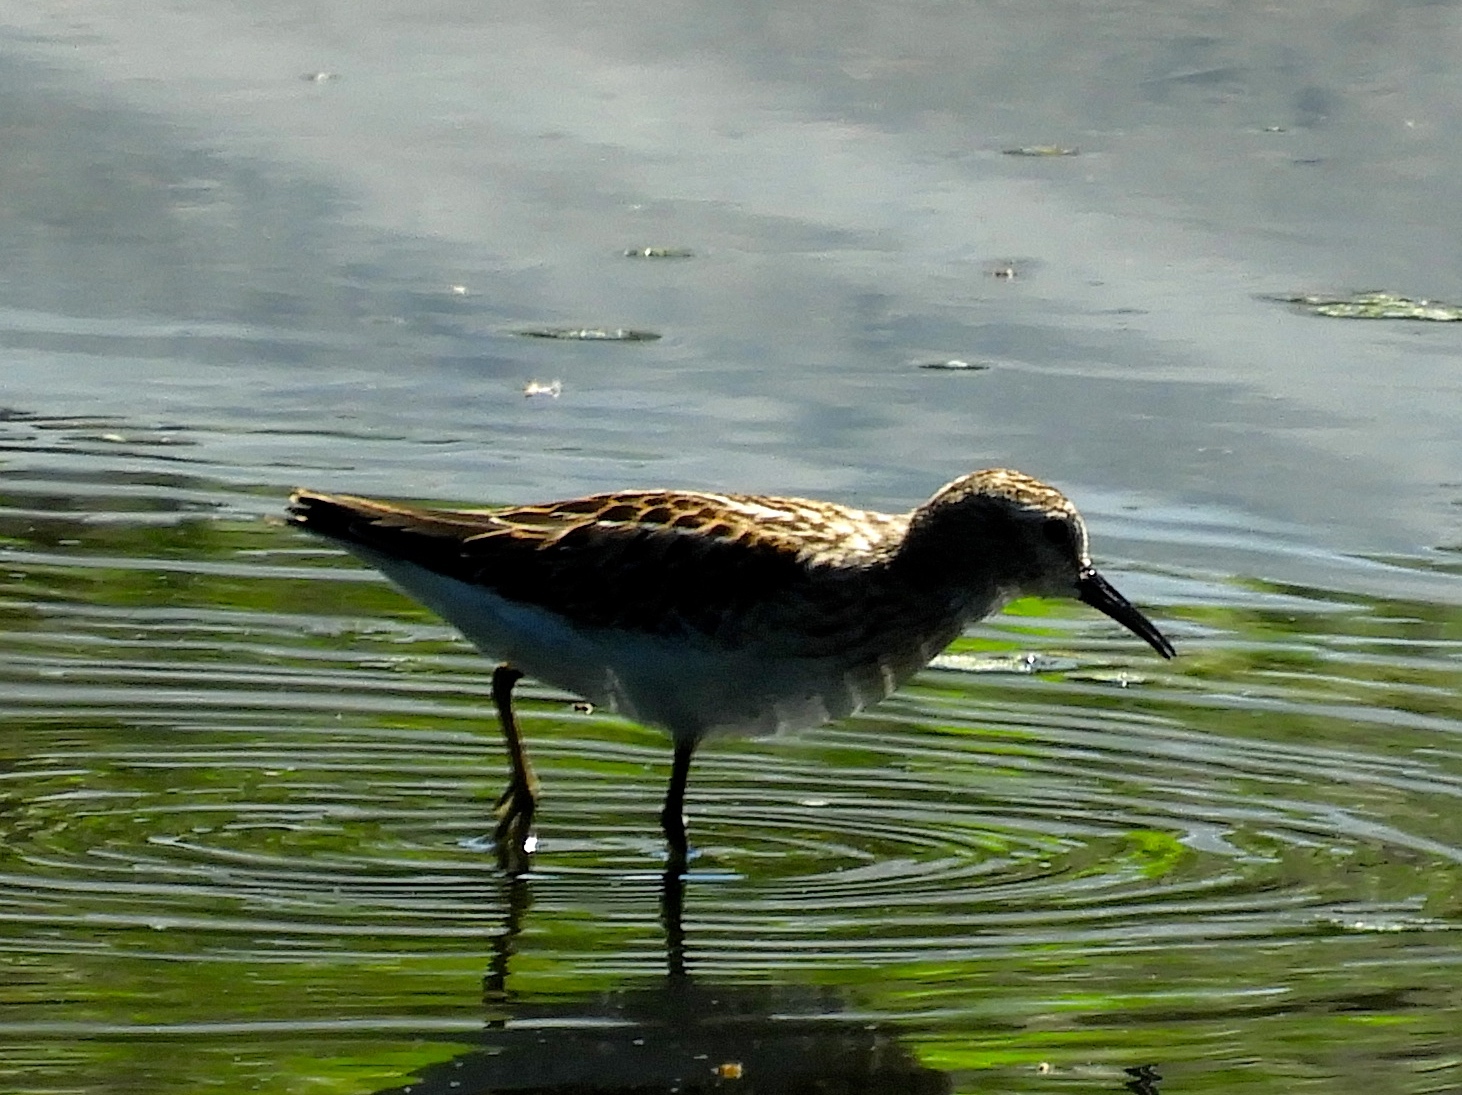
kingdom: Animalia
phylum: Chordata
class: Aves
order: Charadriiformes
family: Scolopacidae
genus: Calidris
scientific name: Calidris minutilla
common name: Least sandpiper
